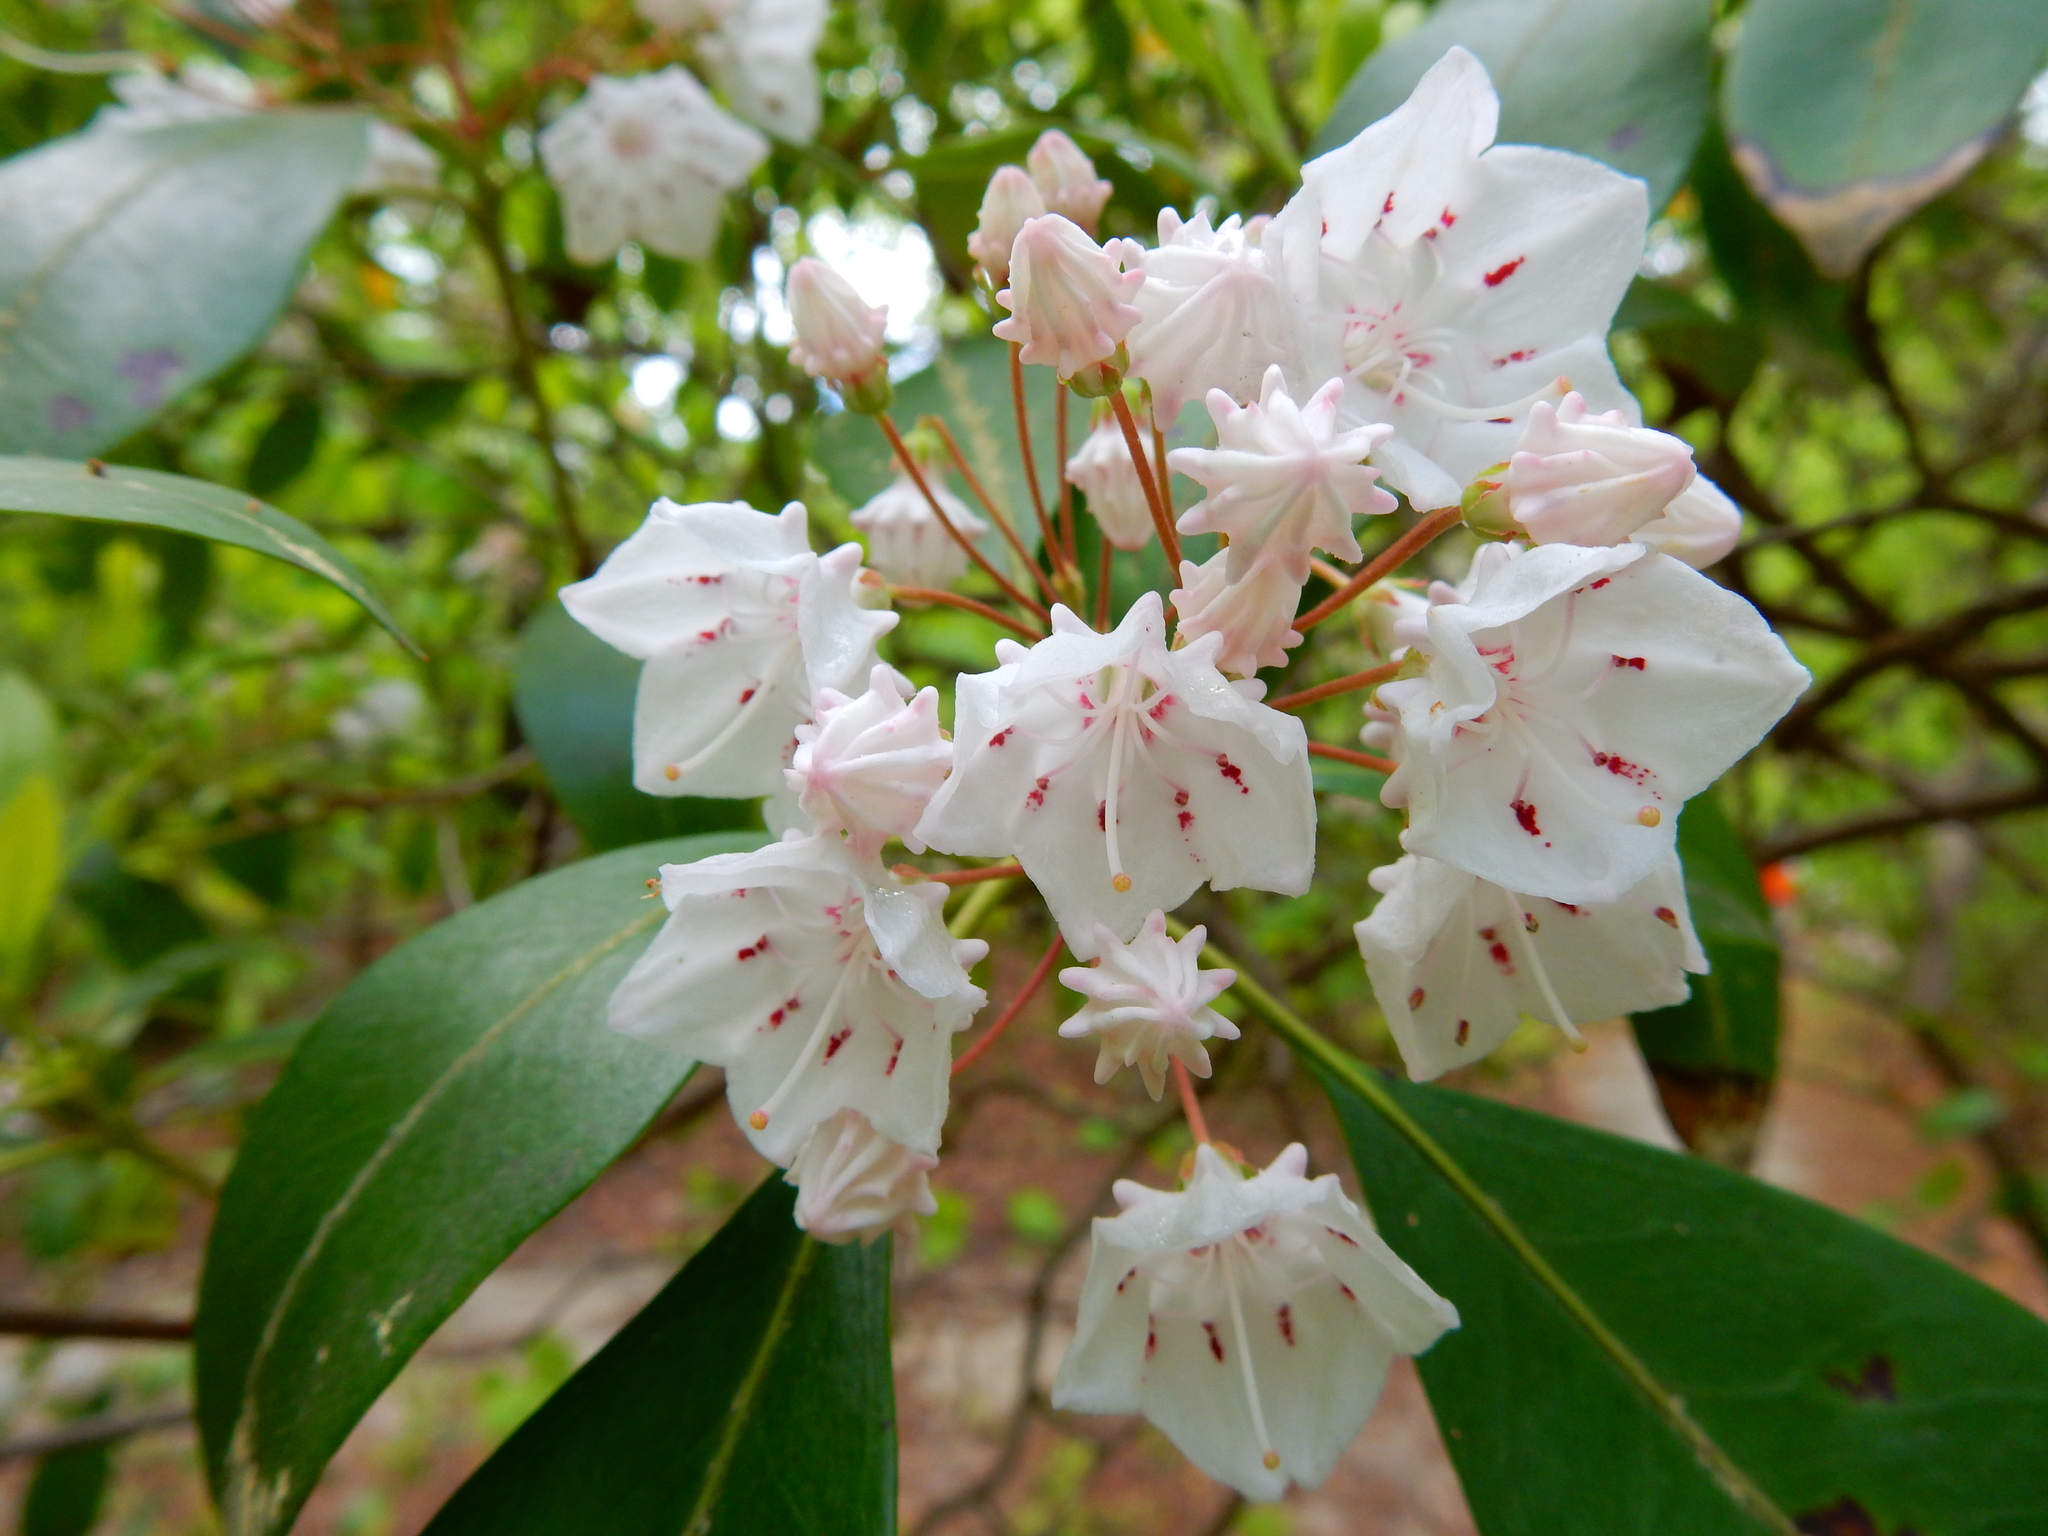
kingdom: Plantae
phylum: Tracheophyta
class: Magnoliopsida
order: Ericales
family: Ericaceae
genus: Kalmia
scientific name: Kalmia latifolia
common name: Mountain-laurel
